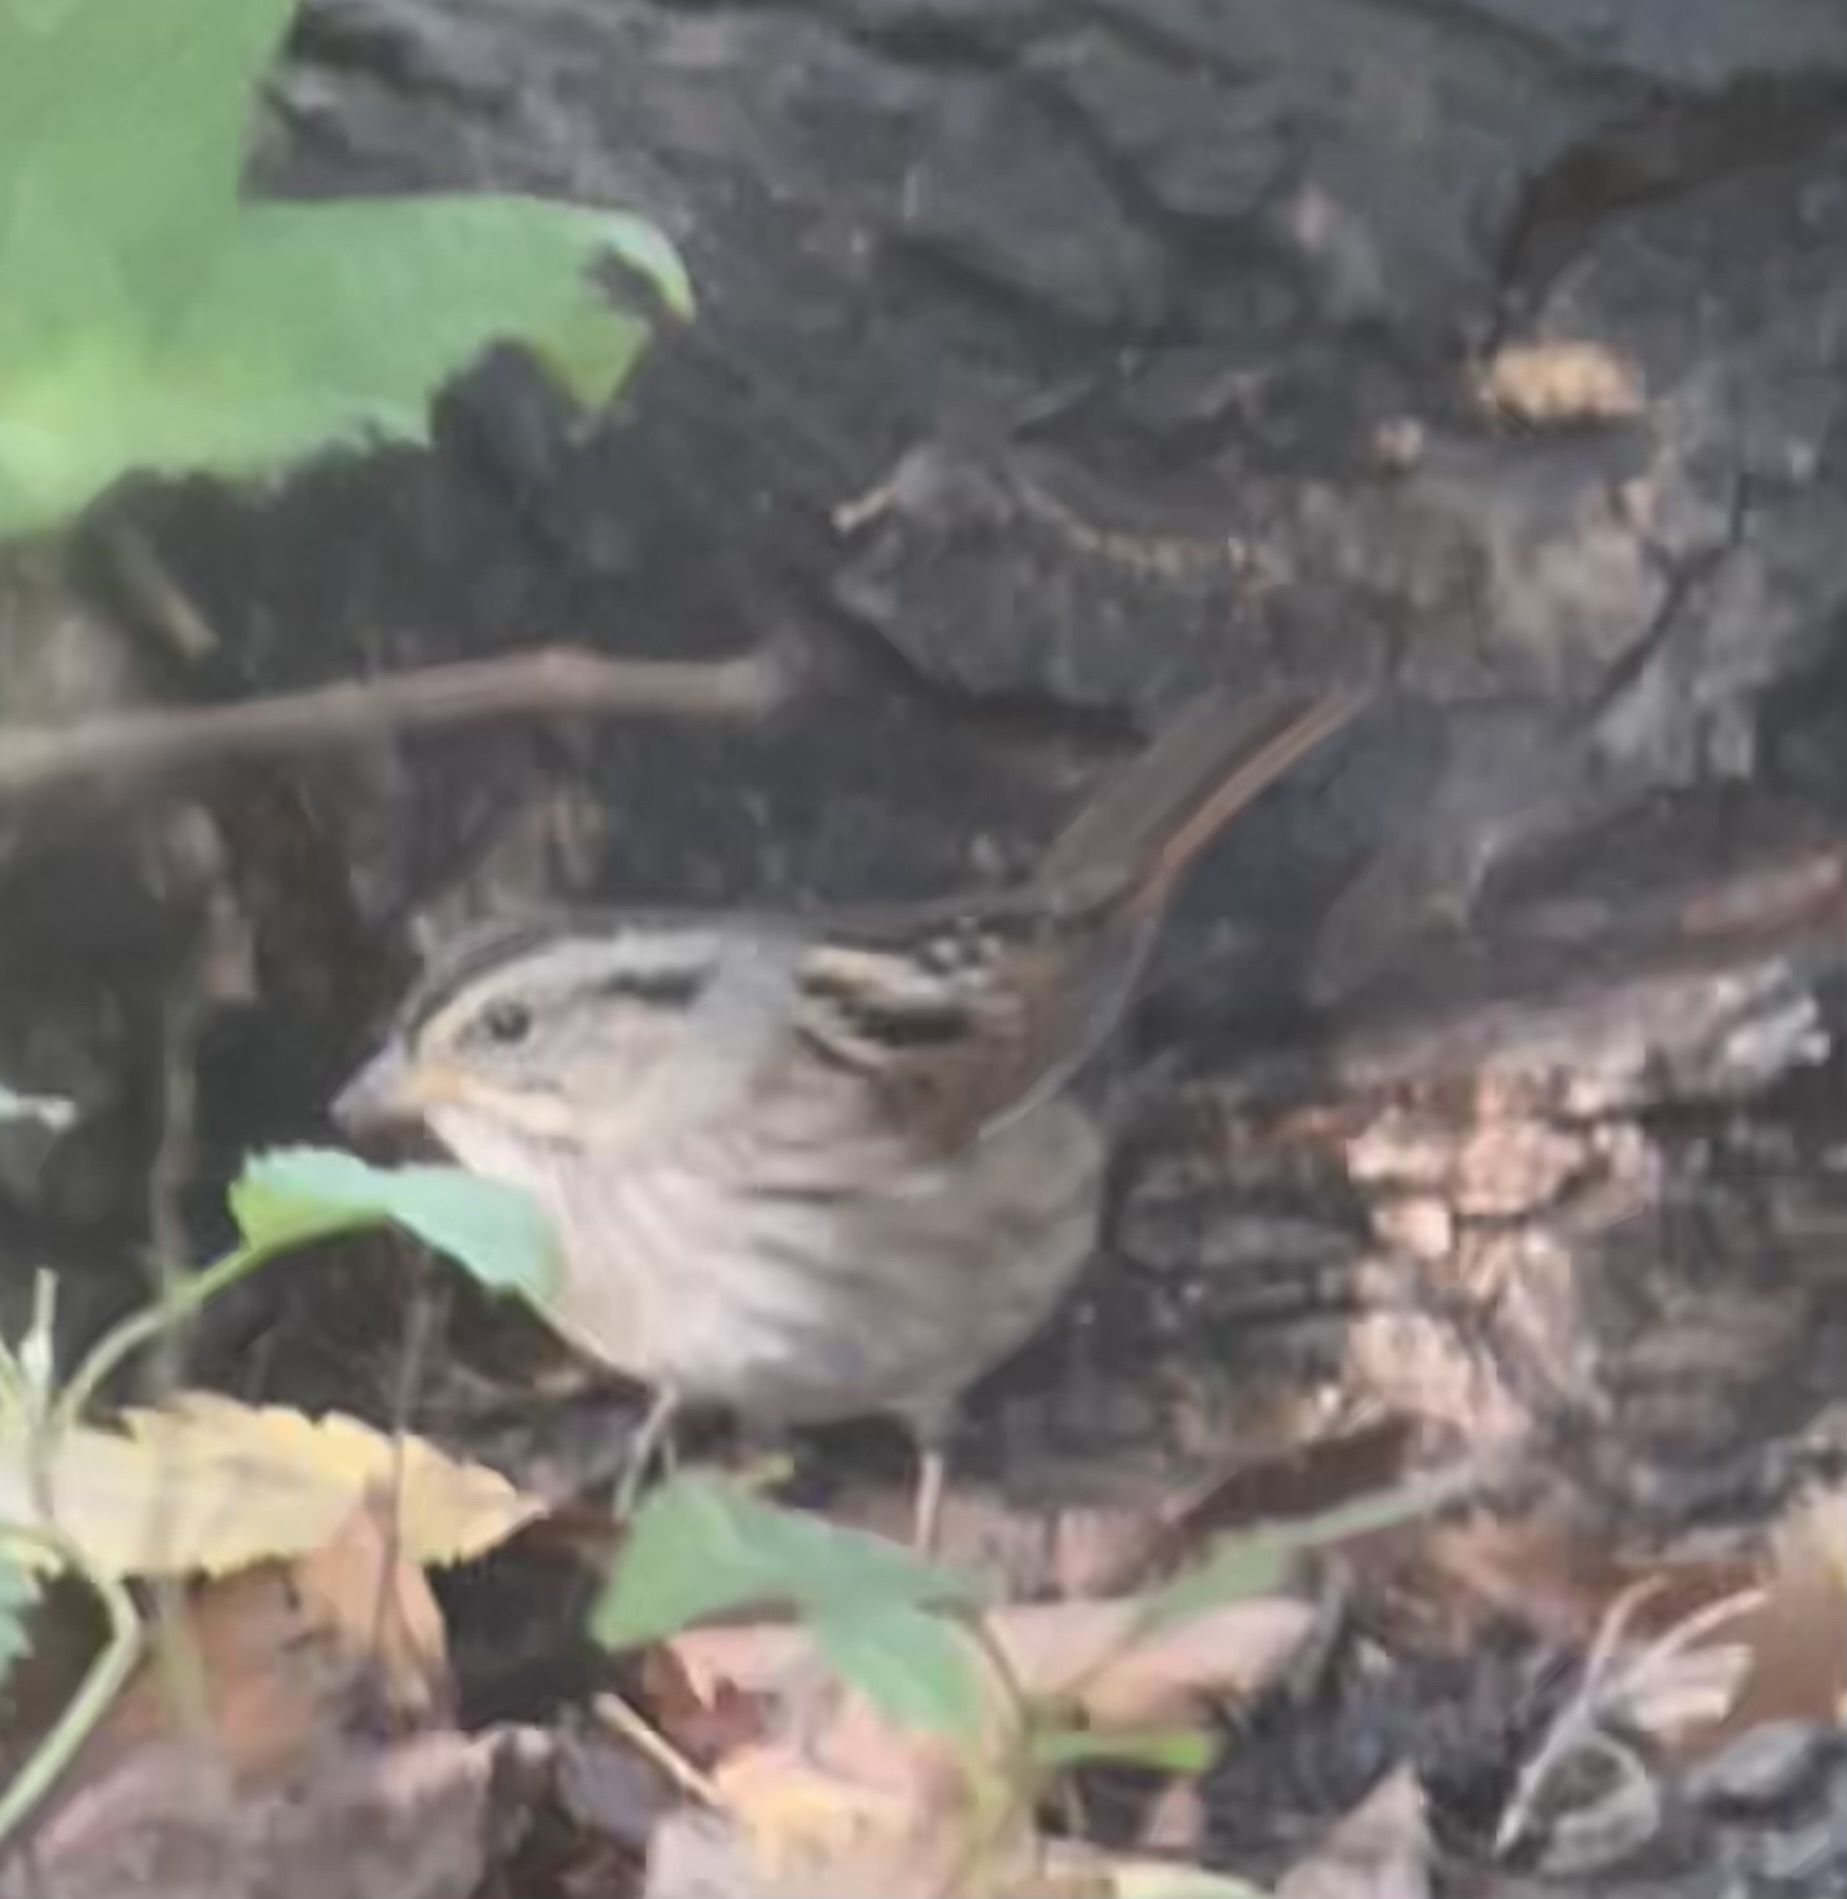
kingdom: Animalia
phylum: Chordata
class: Aves
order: Passeriformes
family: Passerellidae
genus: Melospiza
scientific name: Melospiza georgiana
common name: Swamp sparrow
